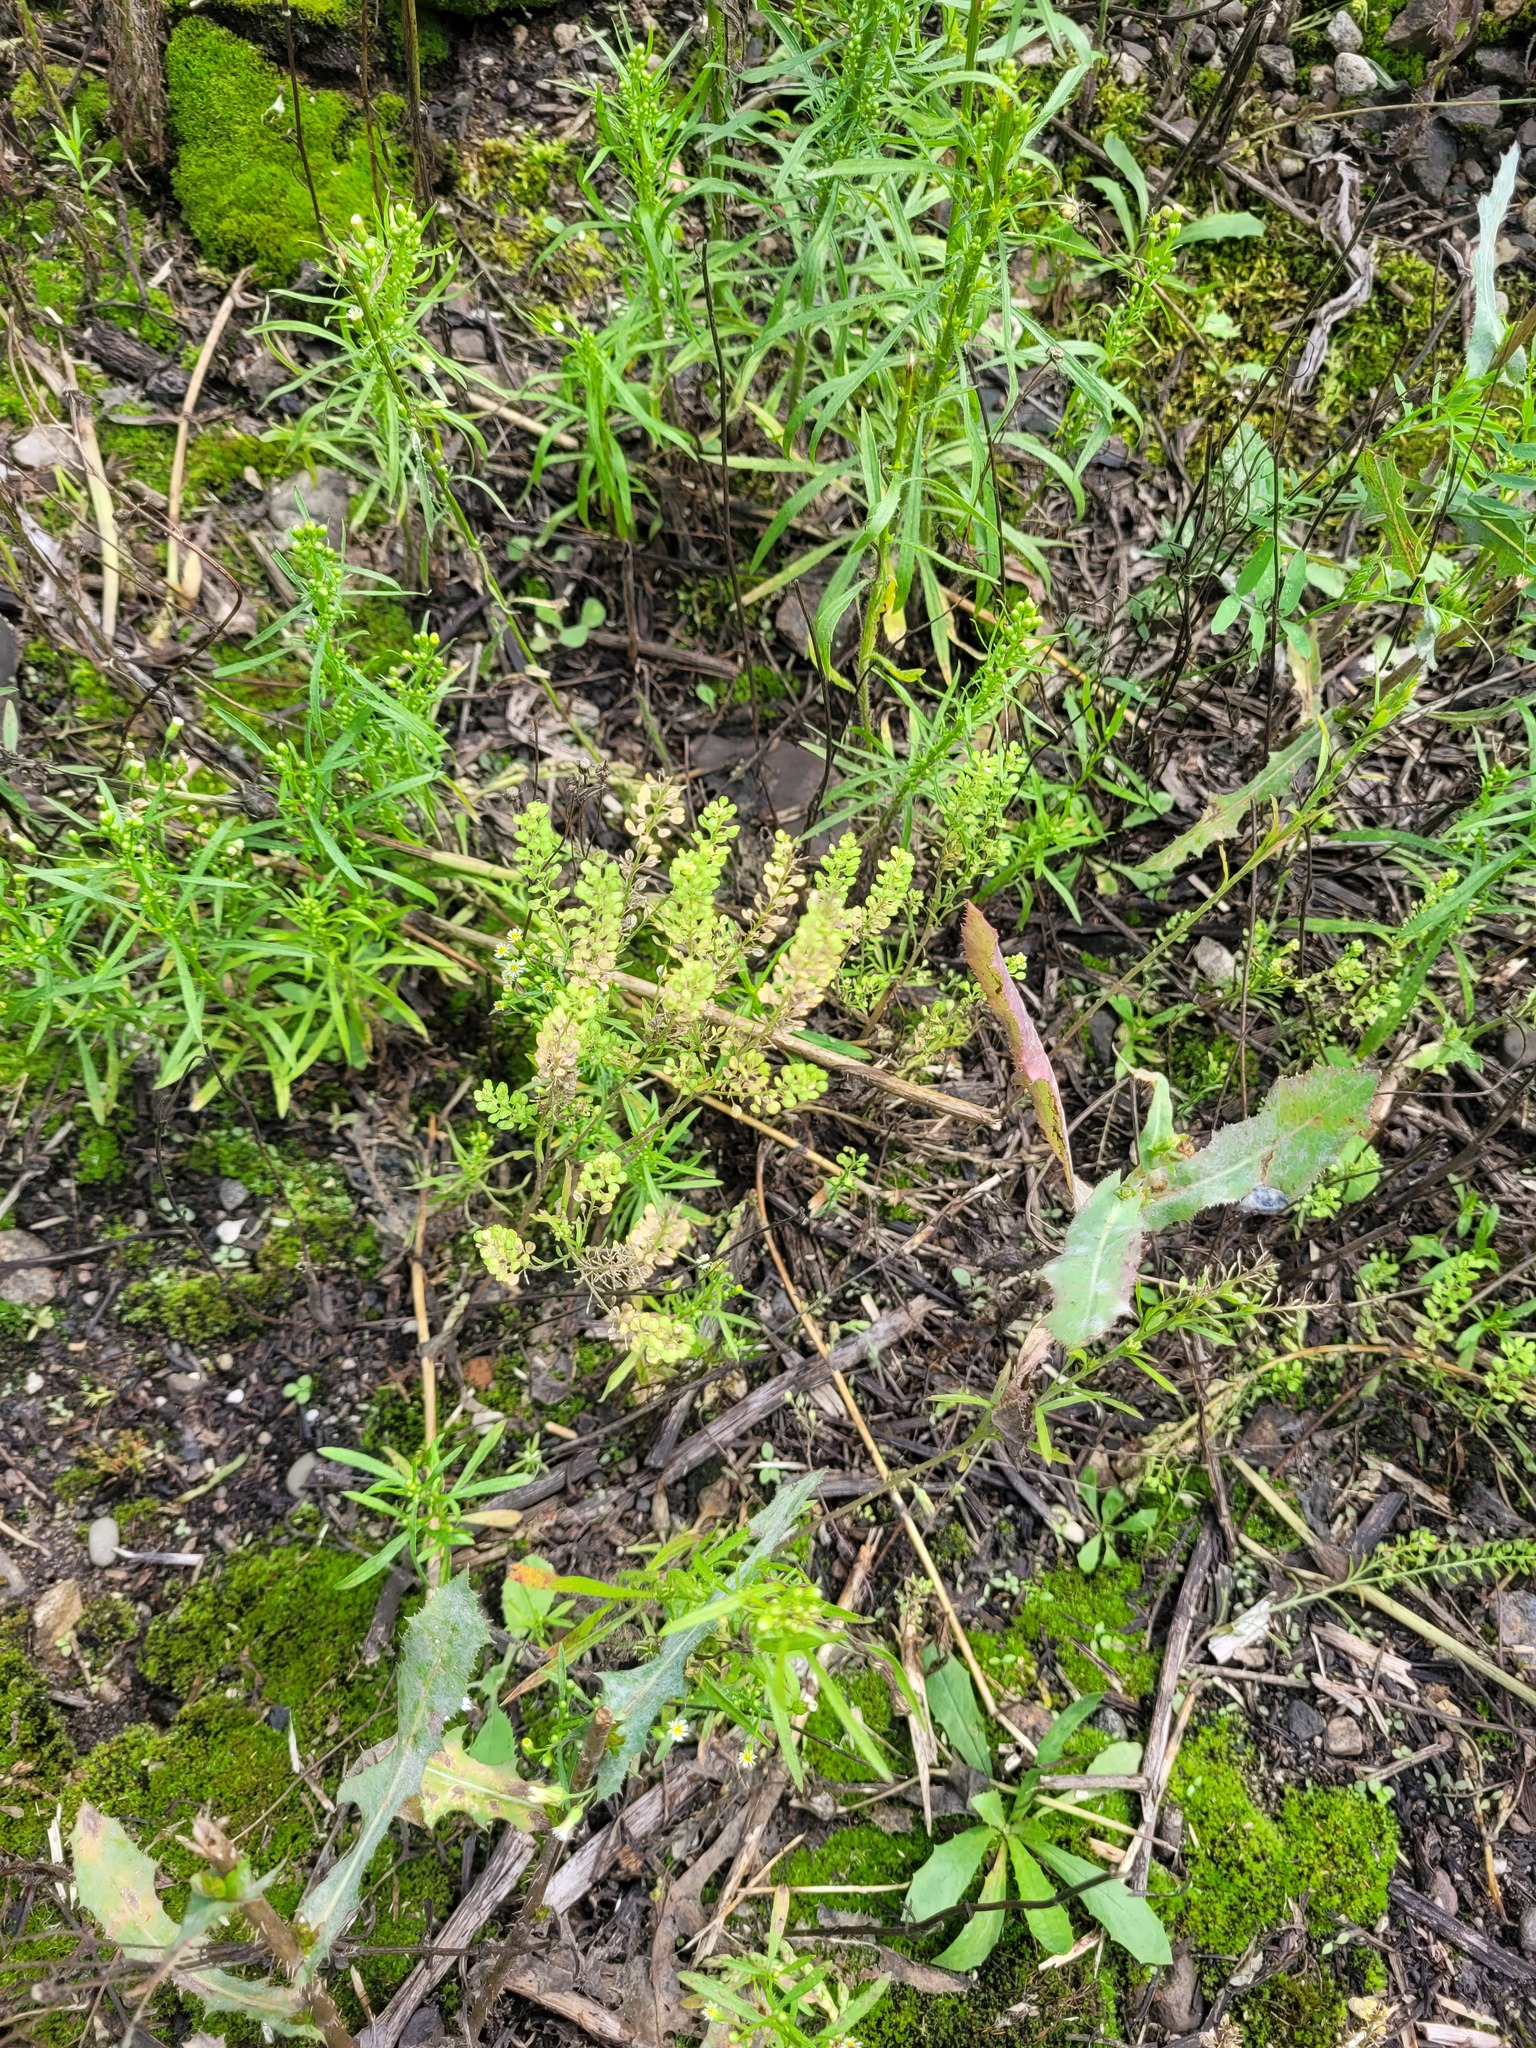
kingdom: Plantae
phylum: Tracheophyta
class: Magnoliopsida
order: Brassicales
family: Brassicaceae
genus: Lepidium
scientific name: Lepidium densiflorum
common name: Miner's pepperwort
